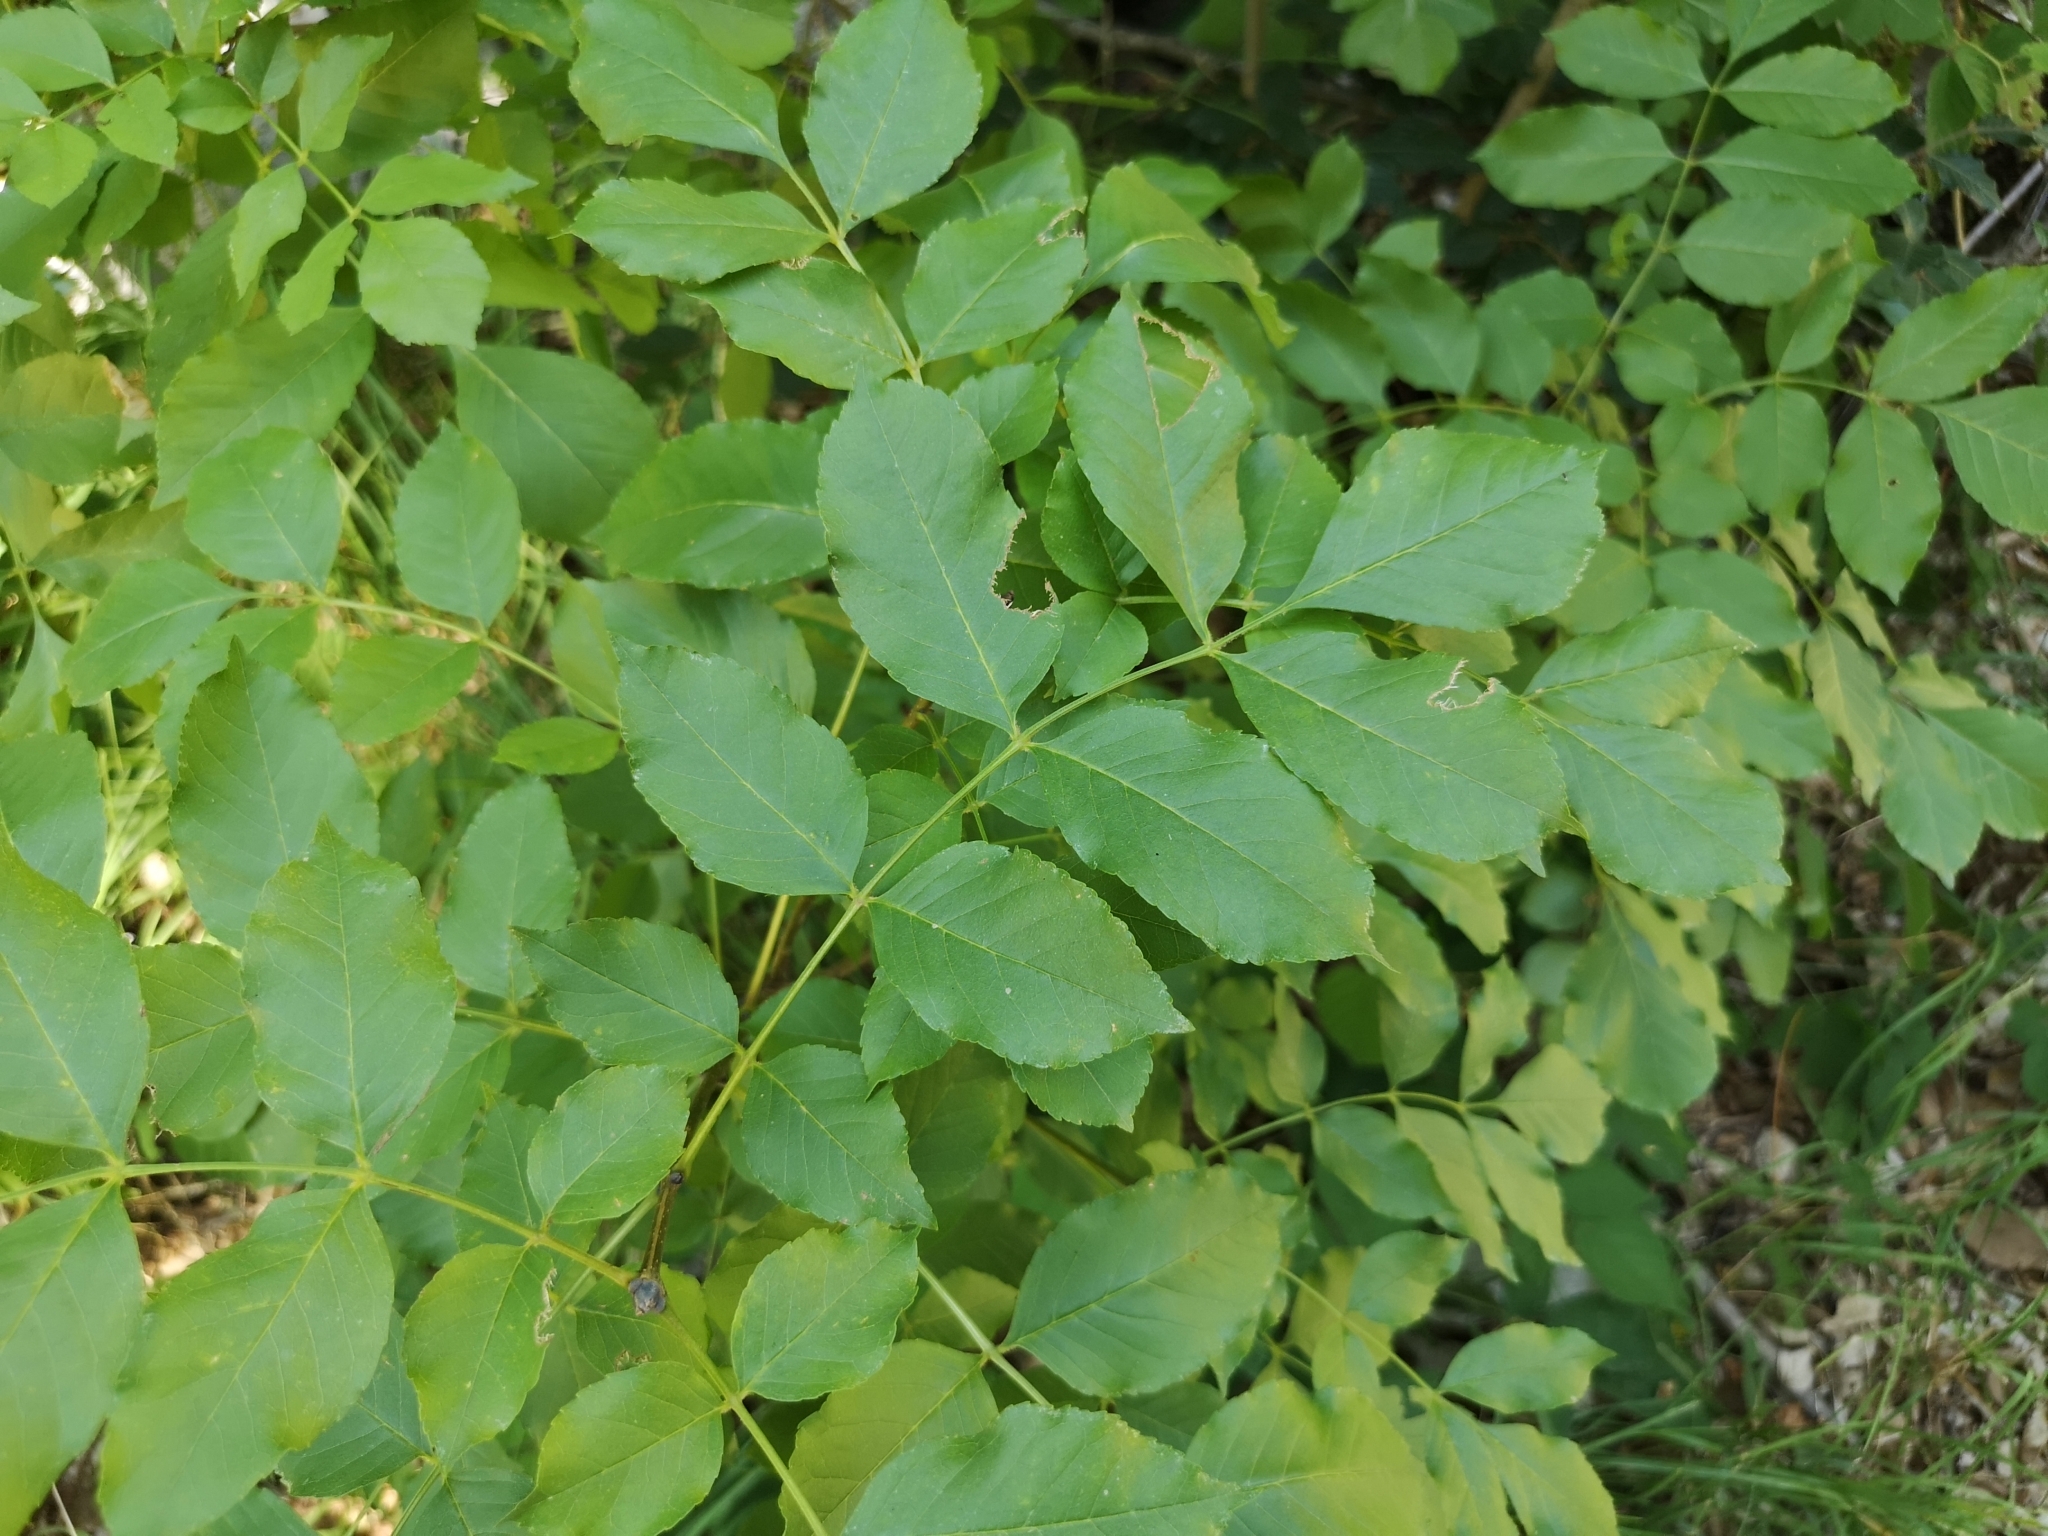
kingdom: Plantae
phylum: Tracheophyta
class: Magnoliopsida
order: Lamiales
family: Oleaceae
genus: Fraxinus
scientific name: Fraxinus ornus
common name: Manna ash
